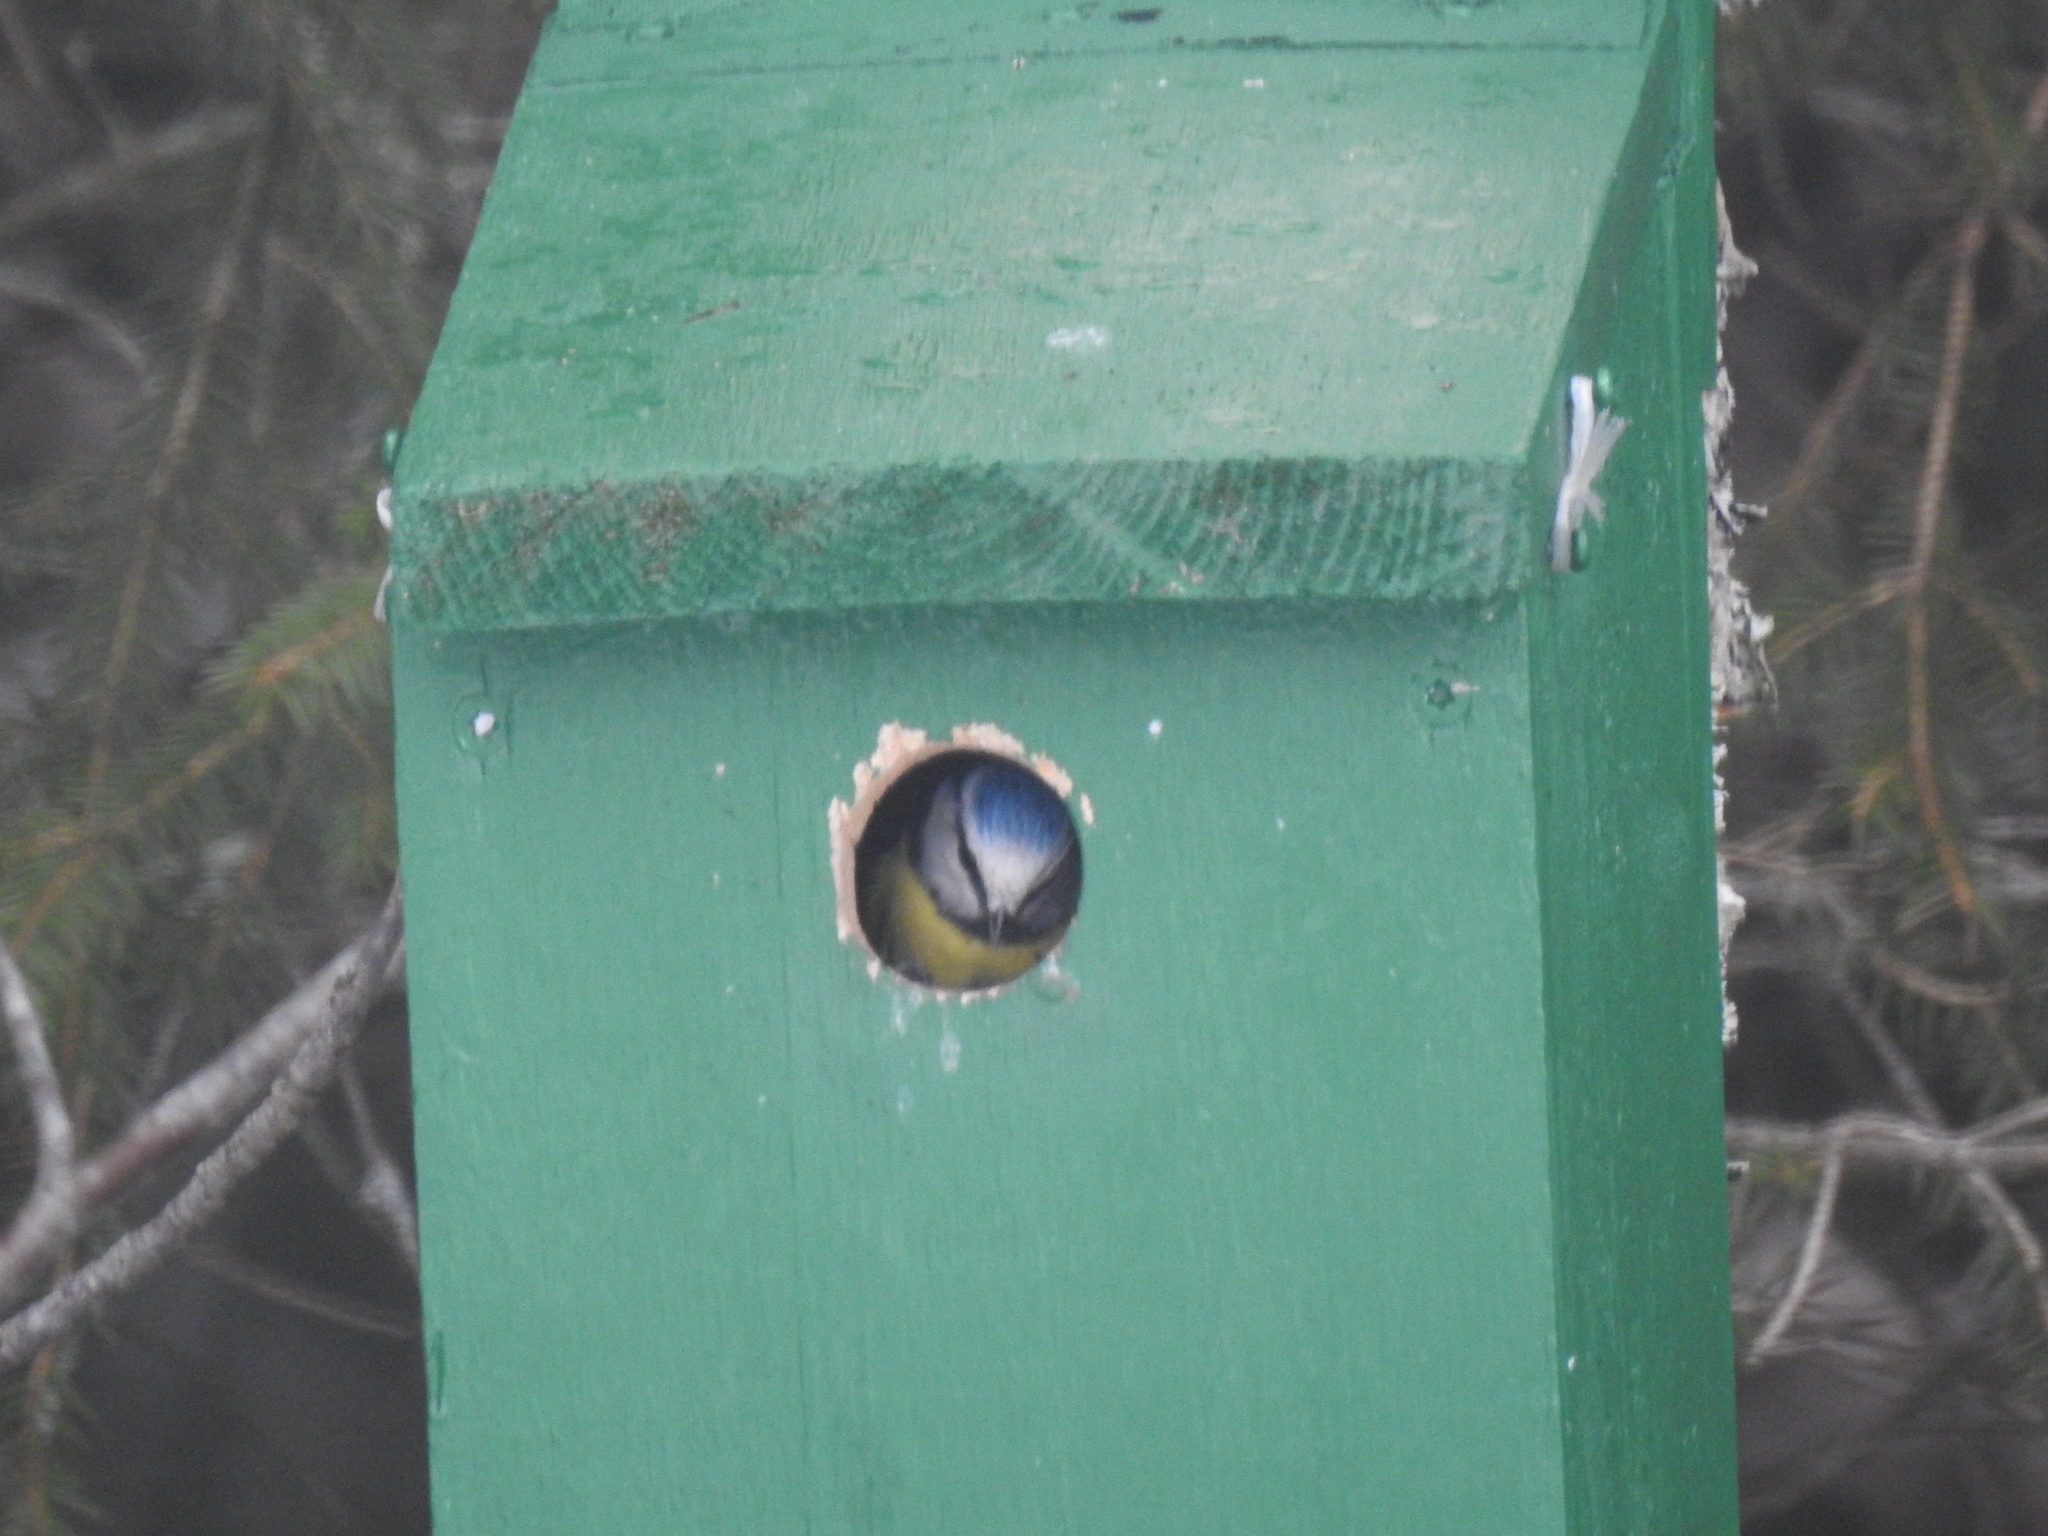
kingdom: Animalia
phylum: Chordata
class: Aves
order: Passeriformes
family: Corvidae
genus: Garrulus
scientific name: Garrulus glandarius
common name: Eurasian jay
